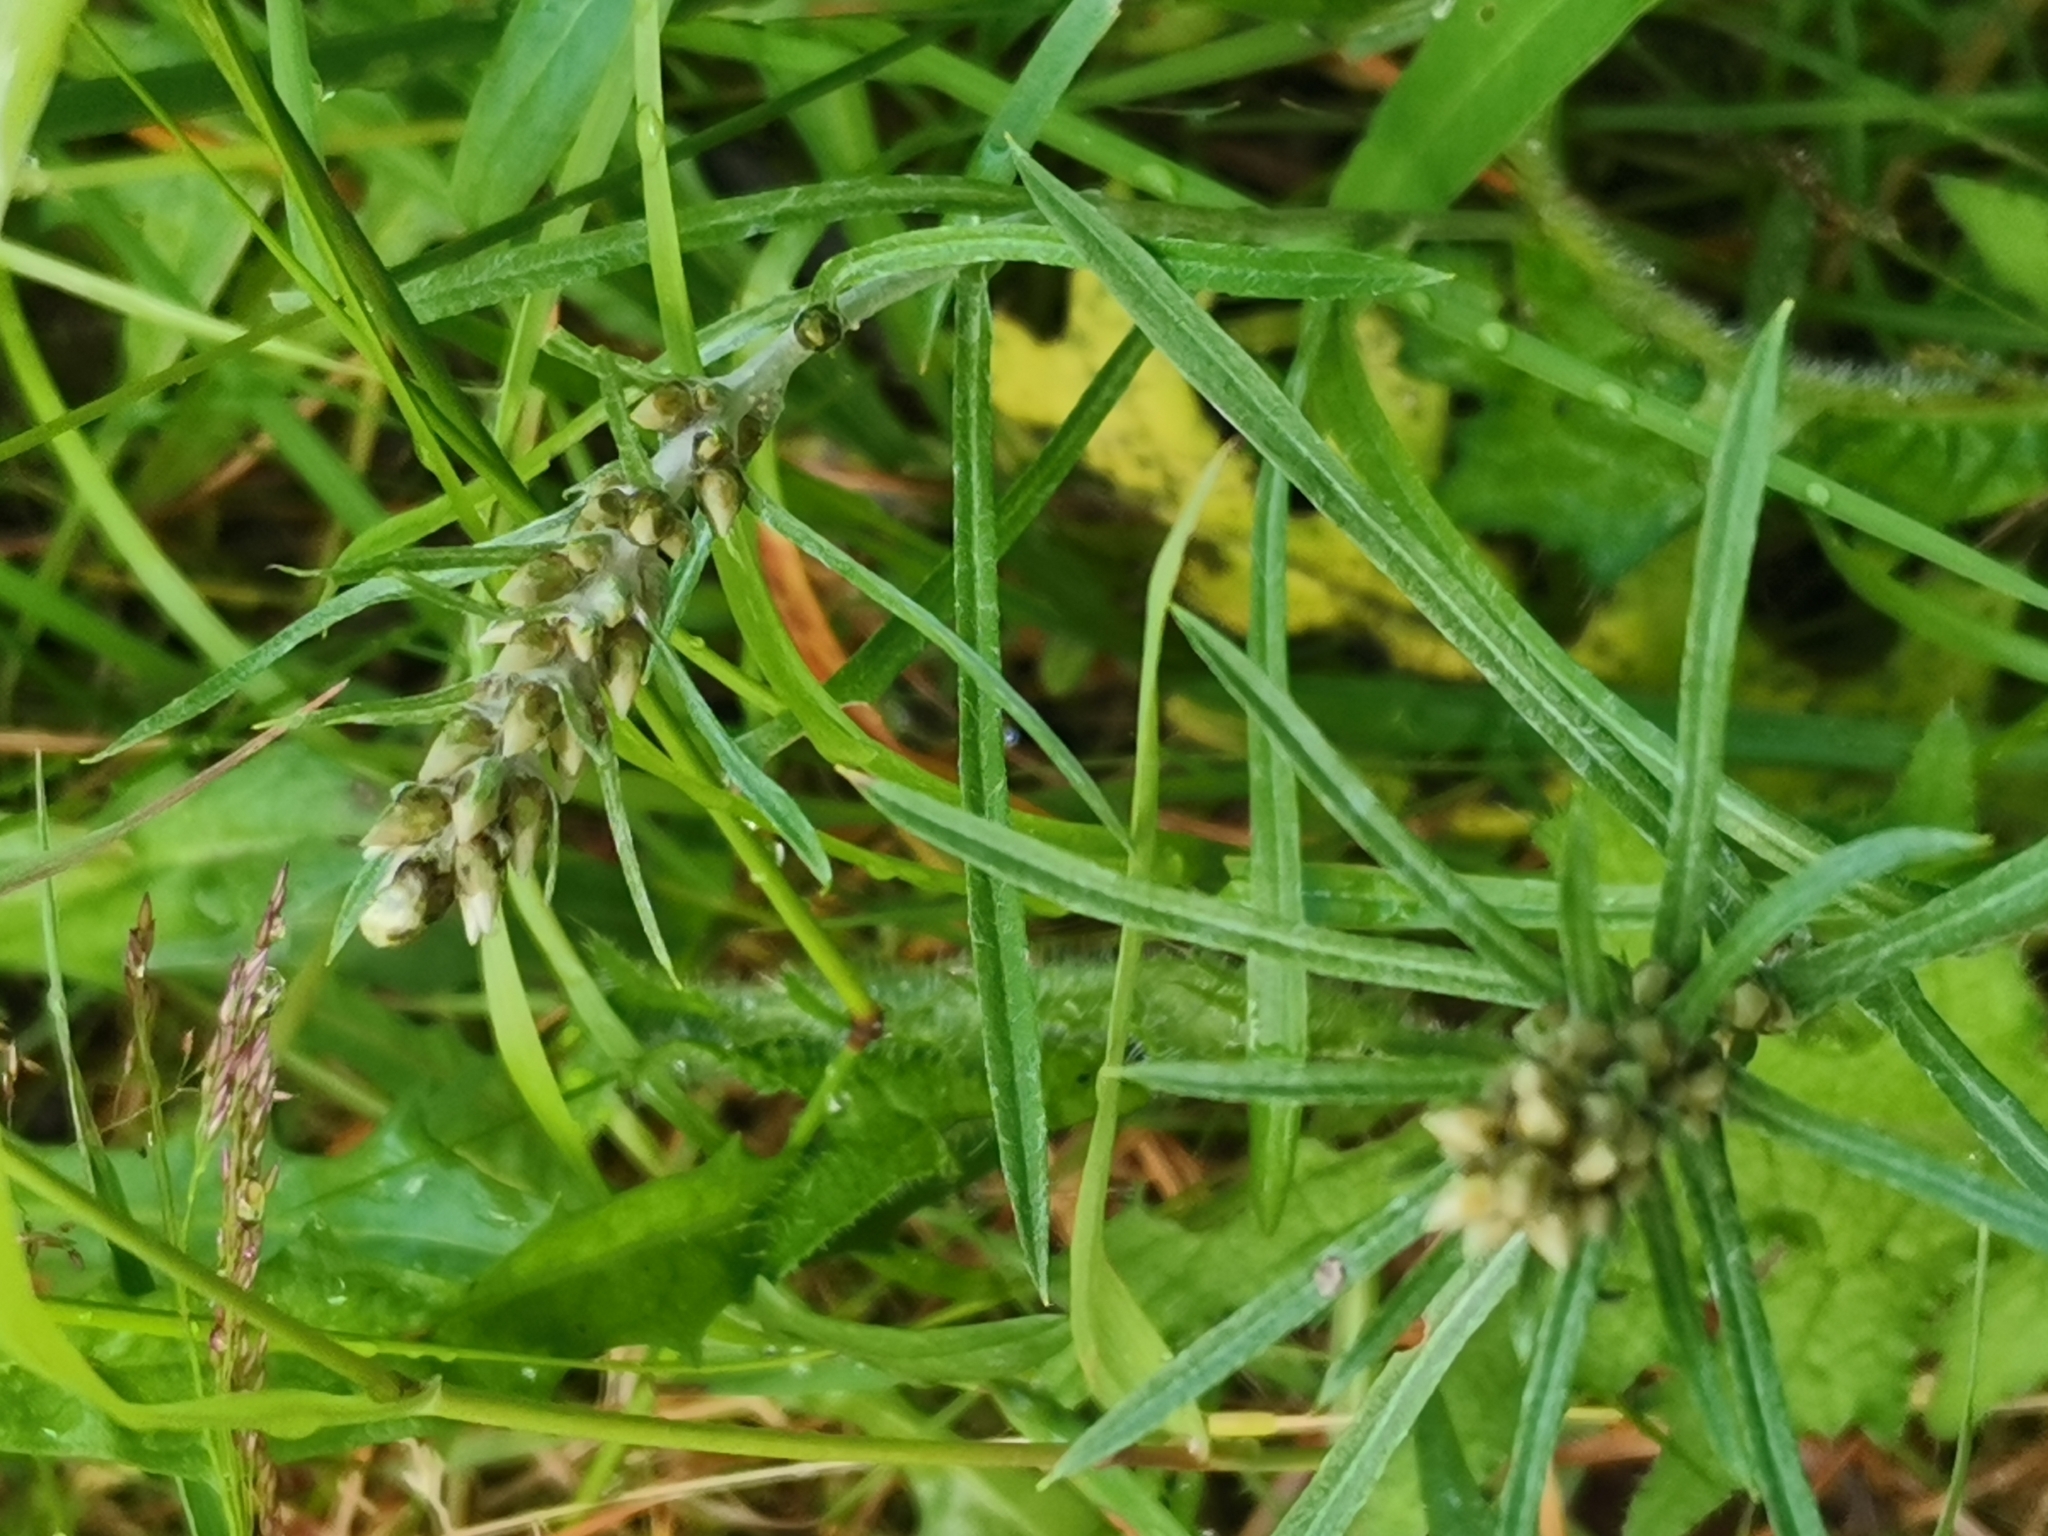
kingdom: Plantae
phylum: Tracheophyta
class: Magnoliopsida
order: Asterales
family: Asteraceae
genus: Omalotheca
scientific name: Omalotheca sylvatica
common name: Heath cudweed
